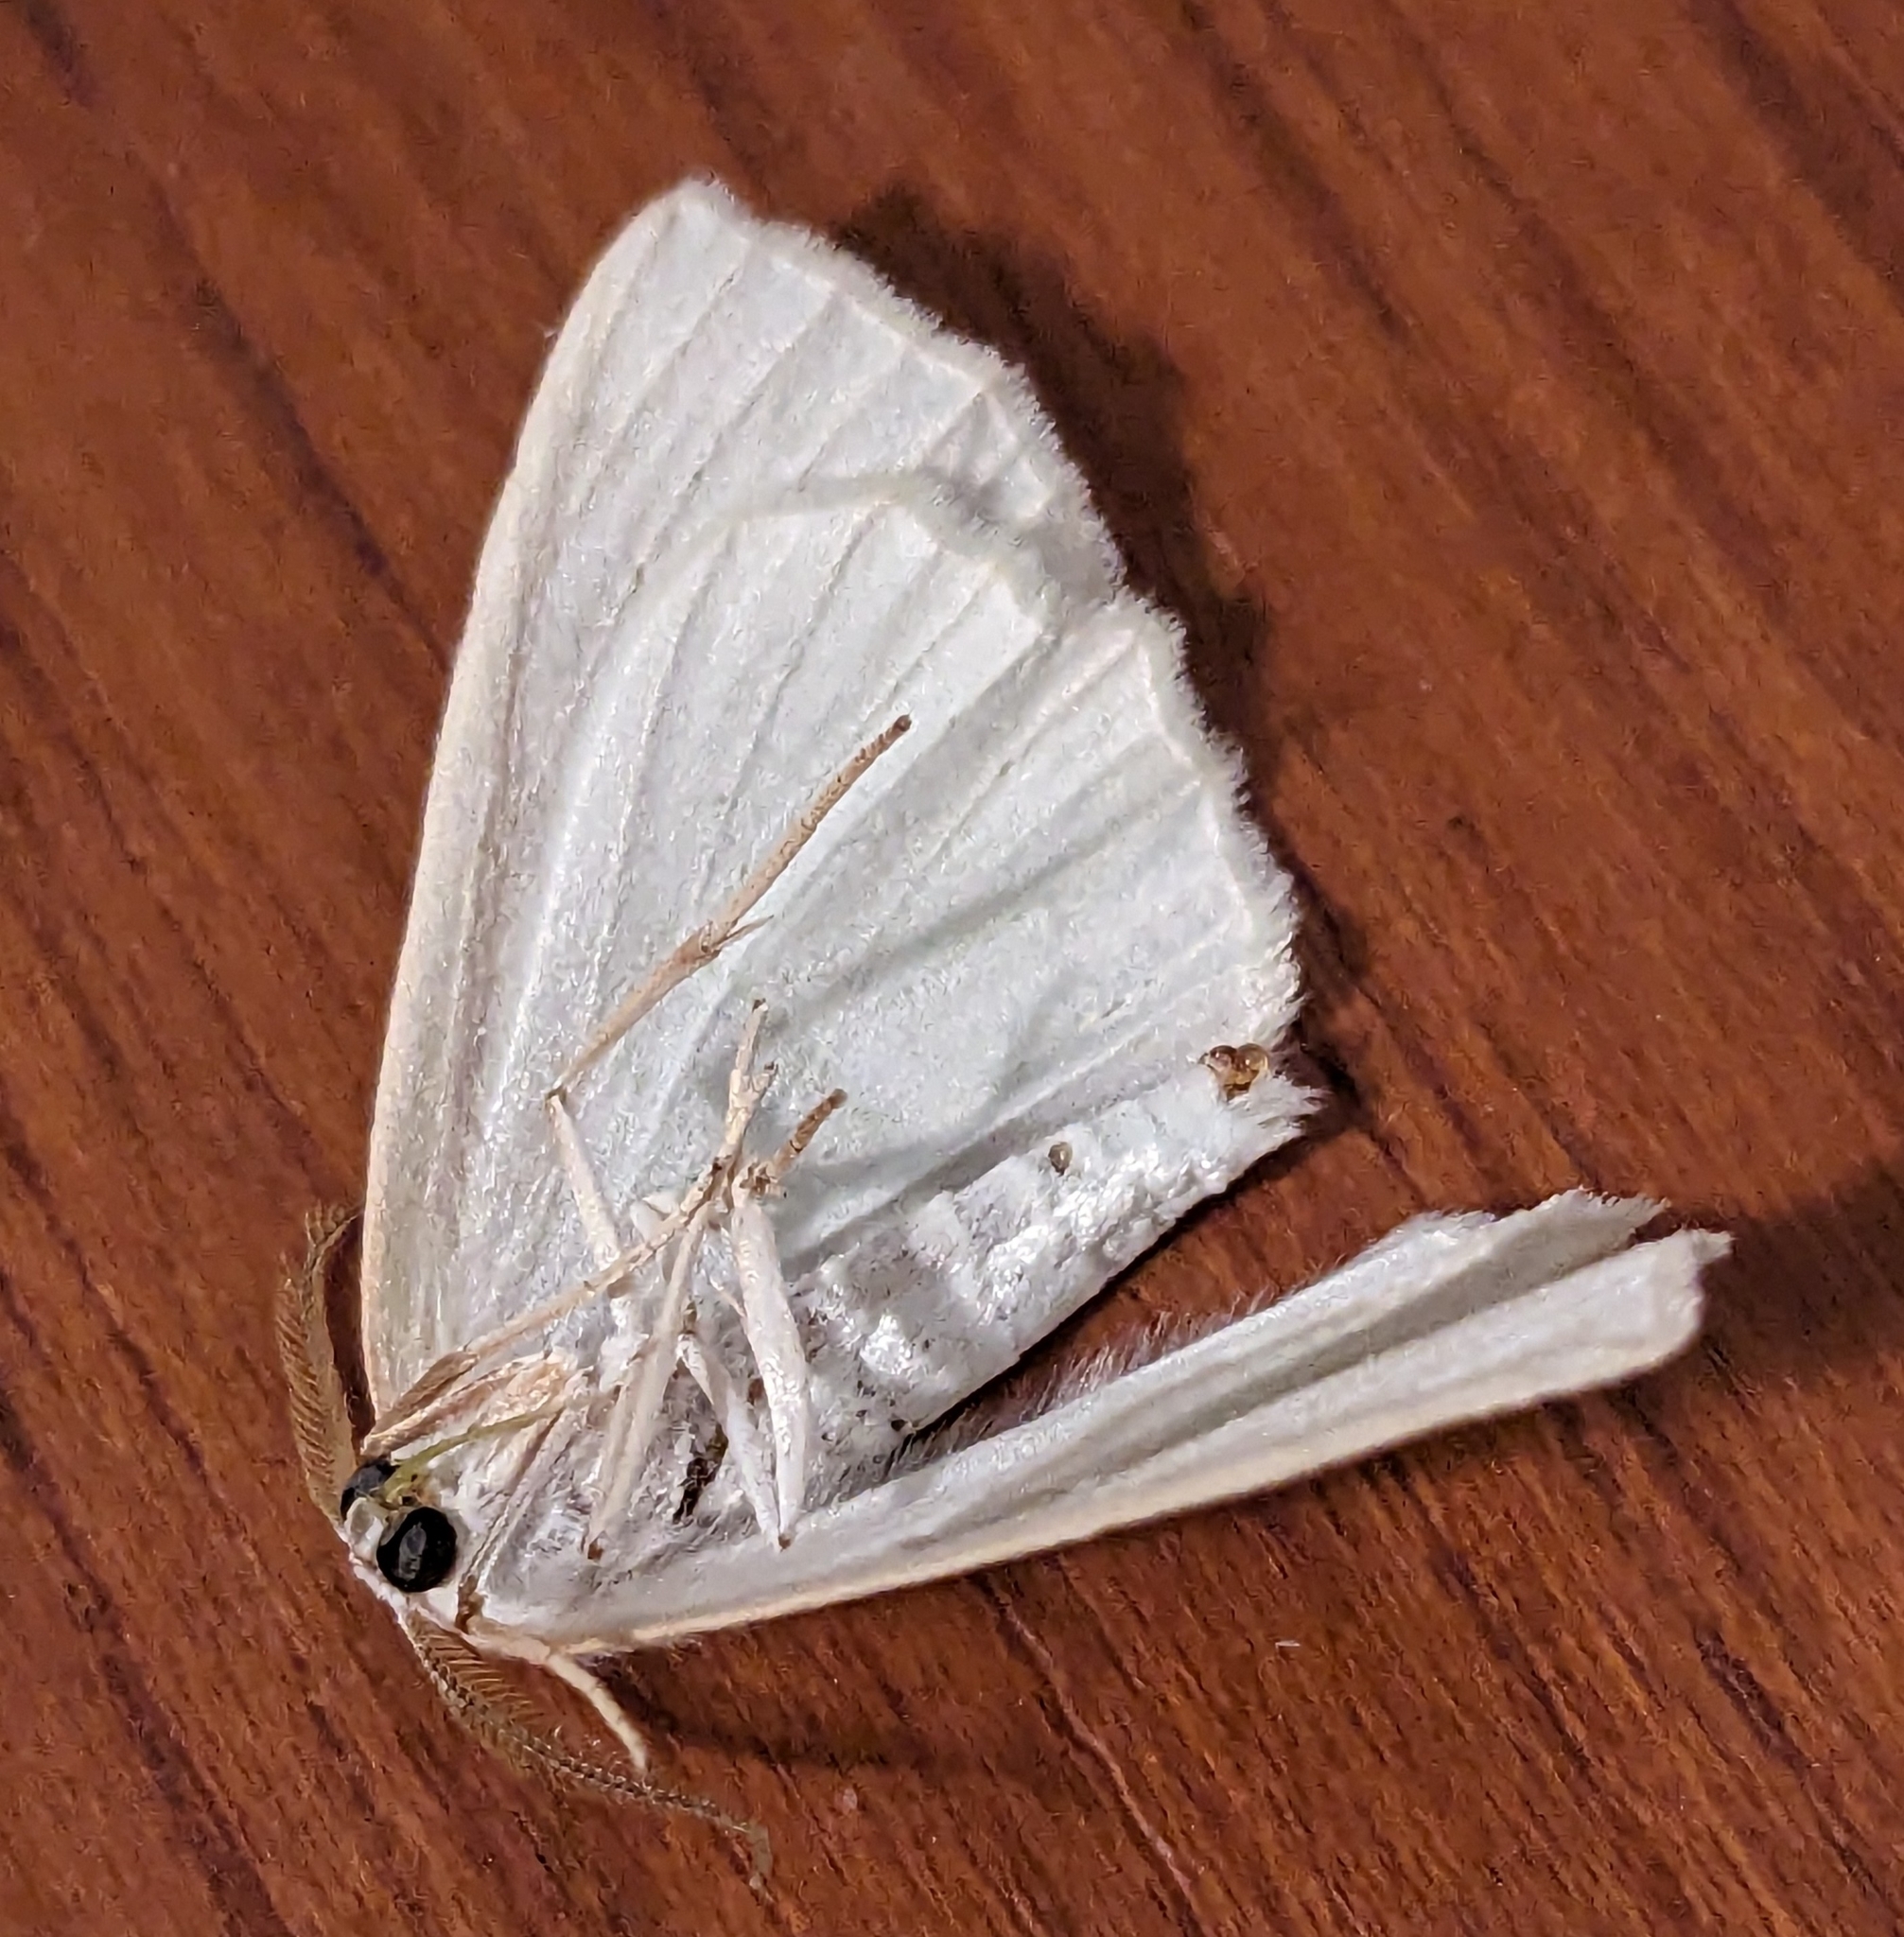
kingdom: Animalia
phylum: Arthropoda
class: Insecta
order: Lepidoptera
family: Geometridae
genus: Campaea
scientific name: Campaea perlata
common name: Fringed looper
